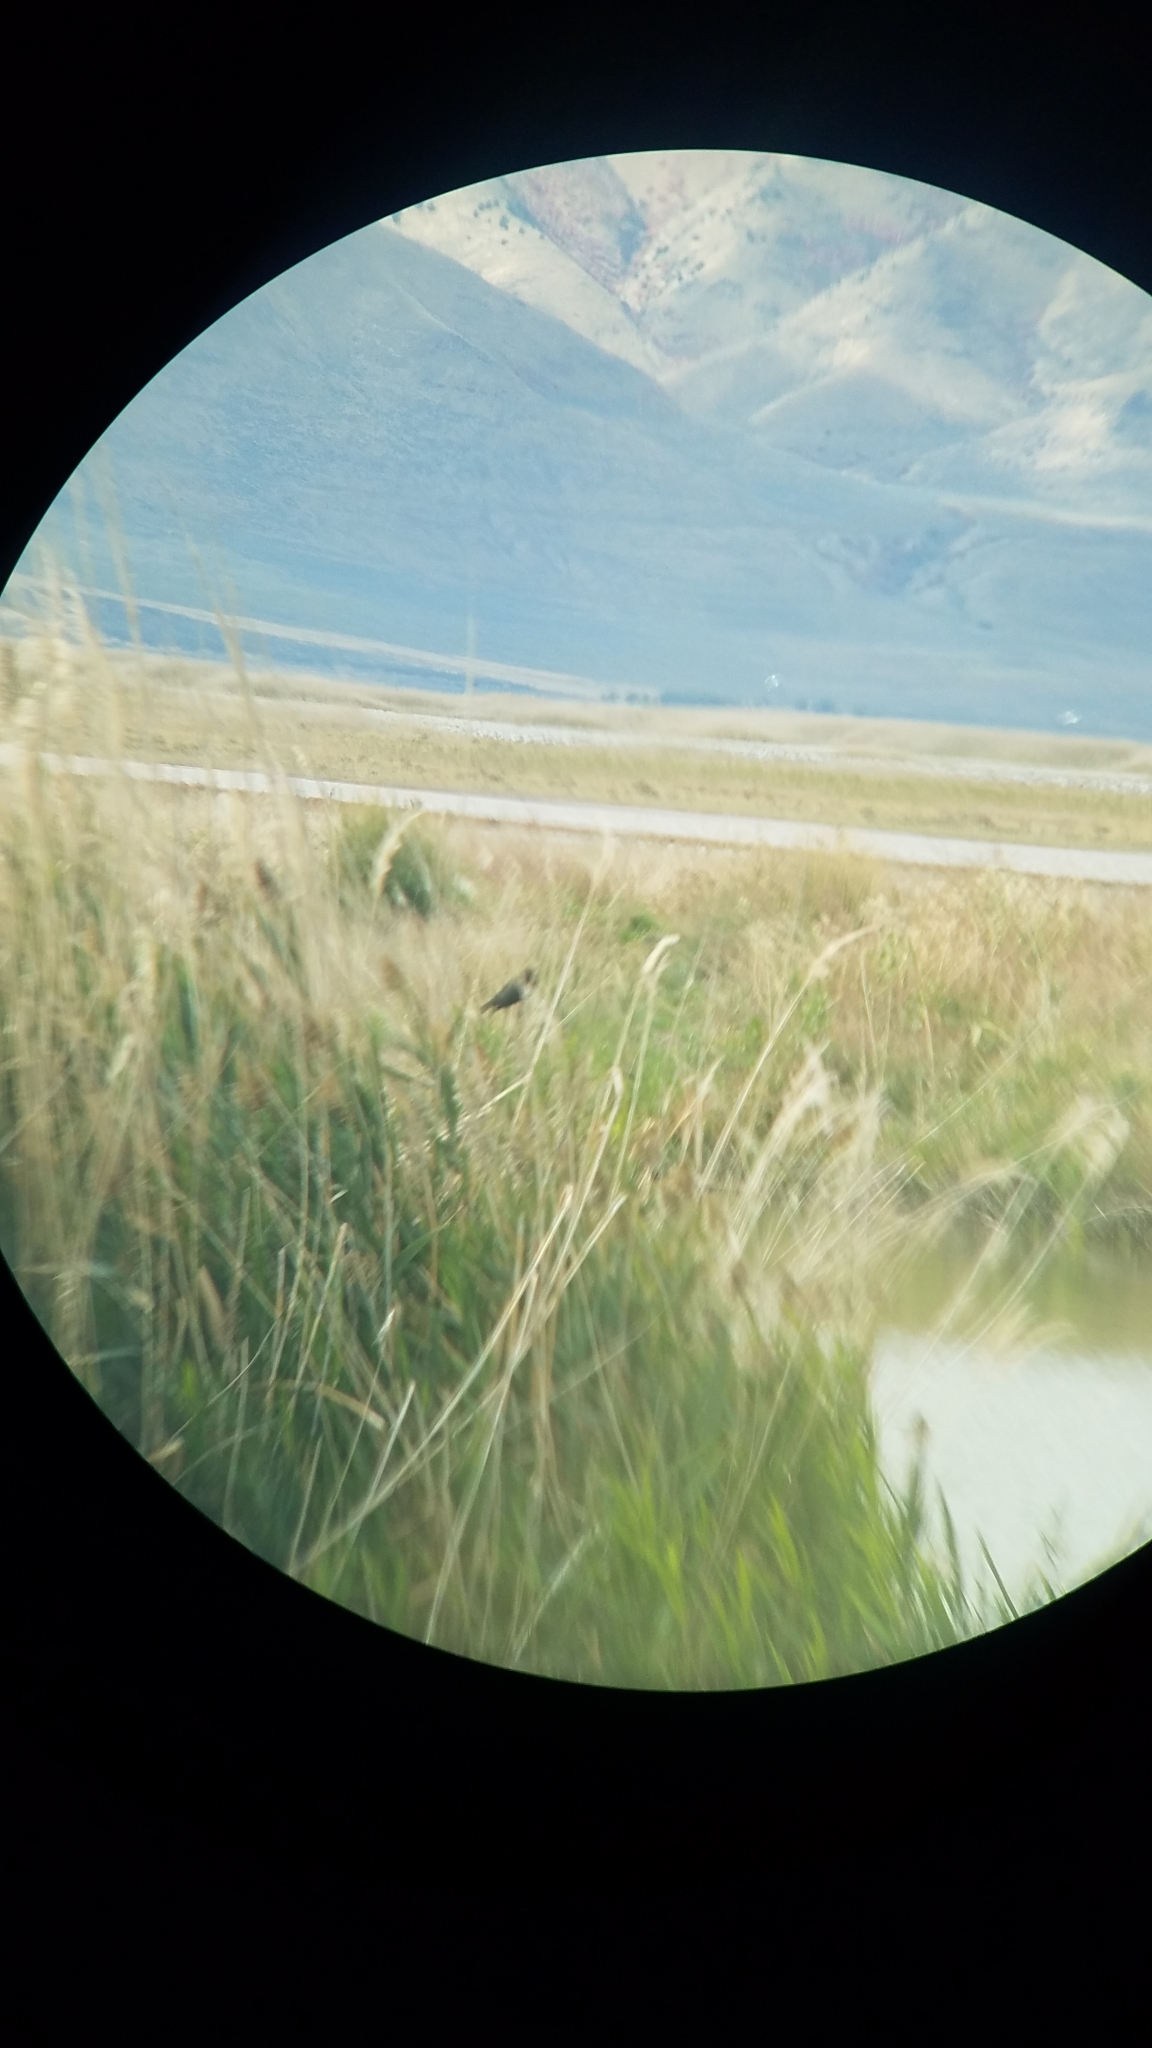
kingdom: Animalia
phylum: Chordata
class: Aves
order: Passeriformes
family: Icteridae
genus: Agelaius
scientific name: Agelaius phoeniceus
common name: Red-winged blackbird
